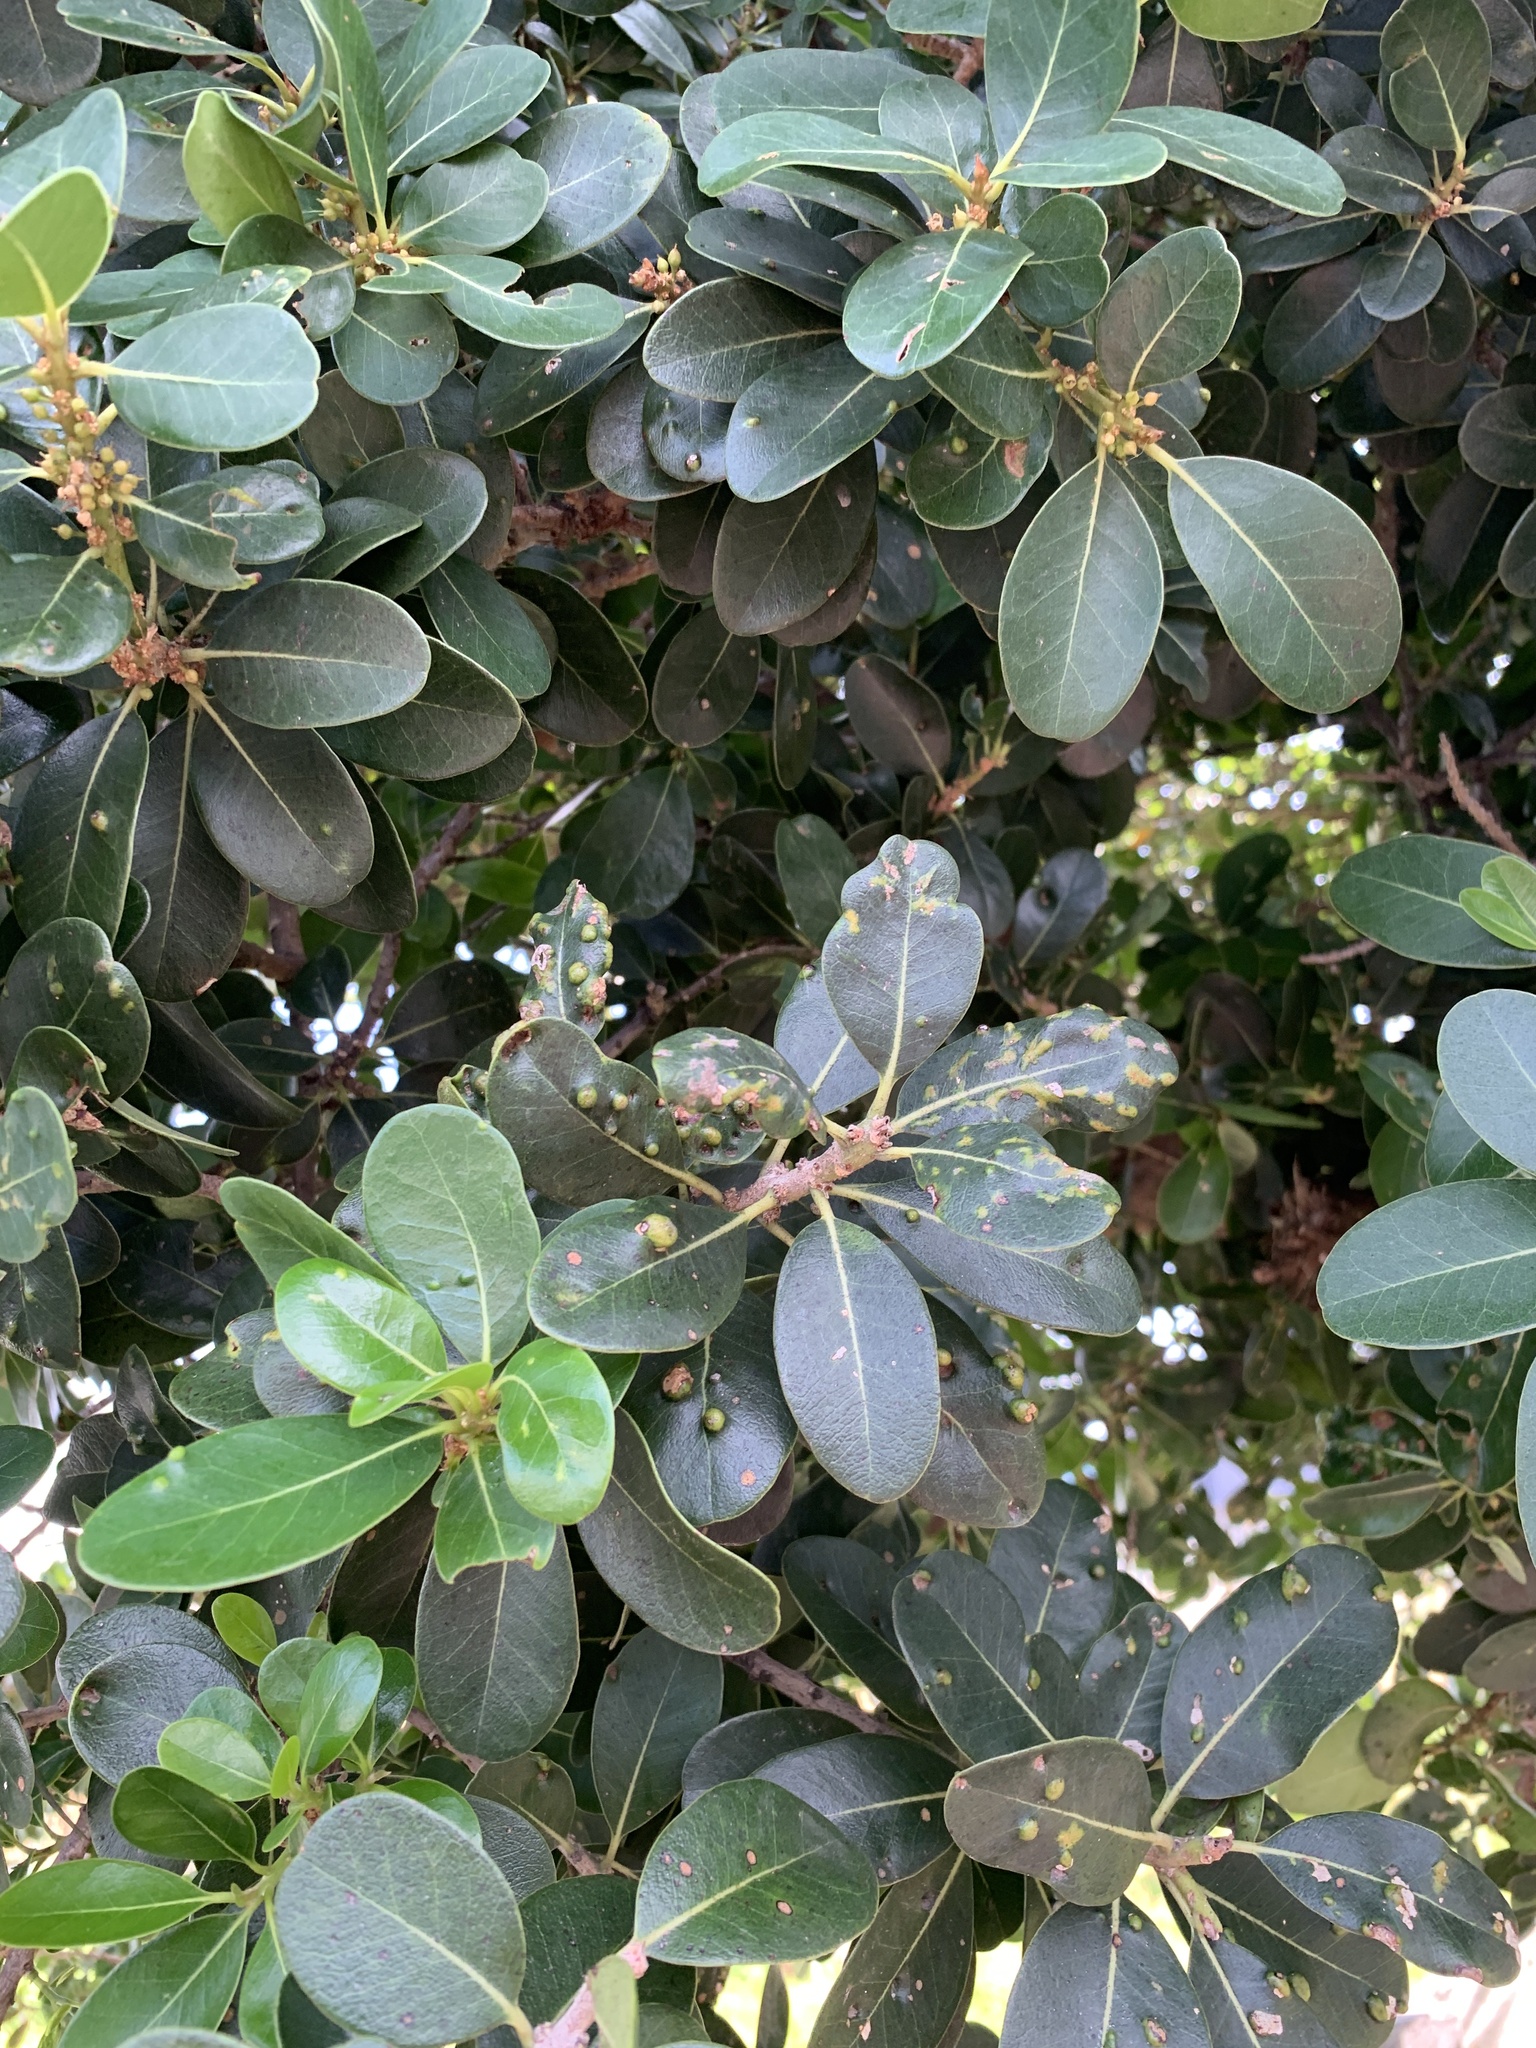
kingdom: Plantae
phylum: Tracheophyta
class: Magnoliopsida
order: Ericales
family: Sapotaceae
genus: Sideroxylon
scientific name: Sideroxylon inerme
